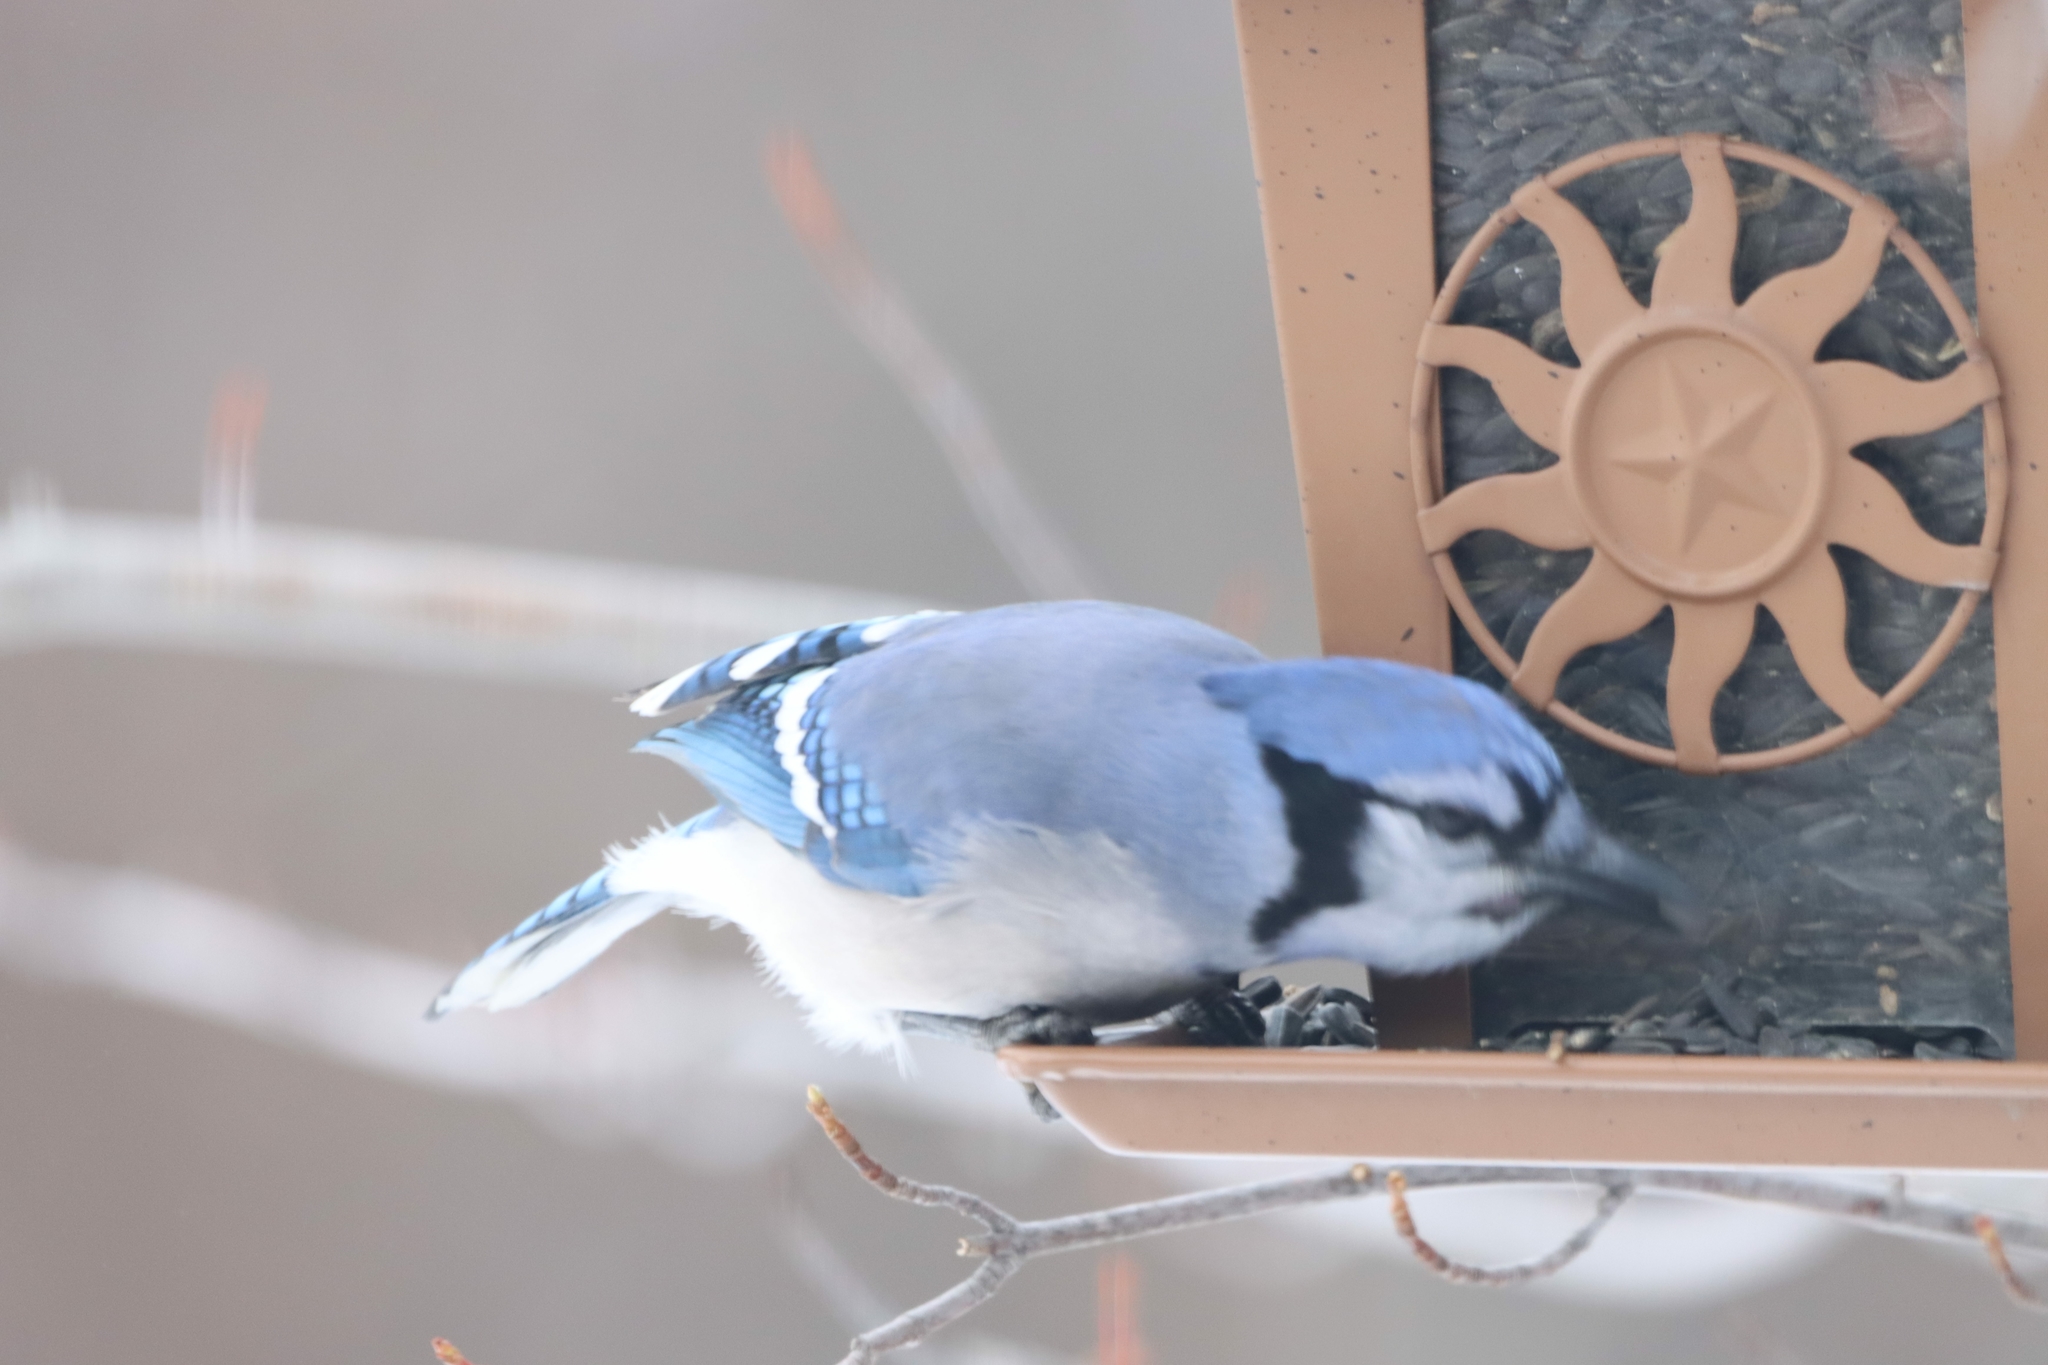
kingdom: Animalia
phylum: Chordata
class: Aves
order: Passeriformes
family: Corvidae
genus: Cyanocitta
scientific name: Cyanocitta cristata
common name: Blue jay
